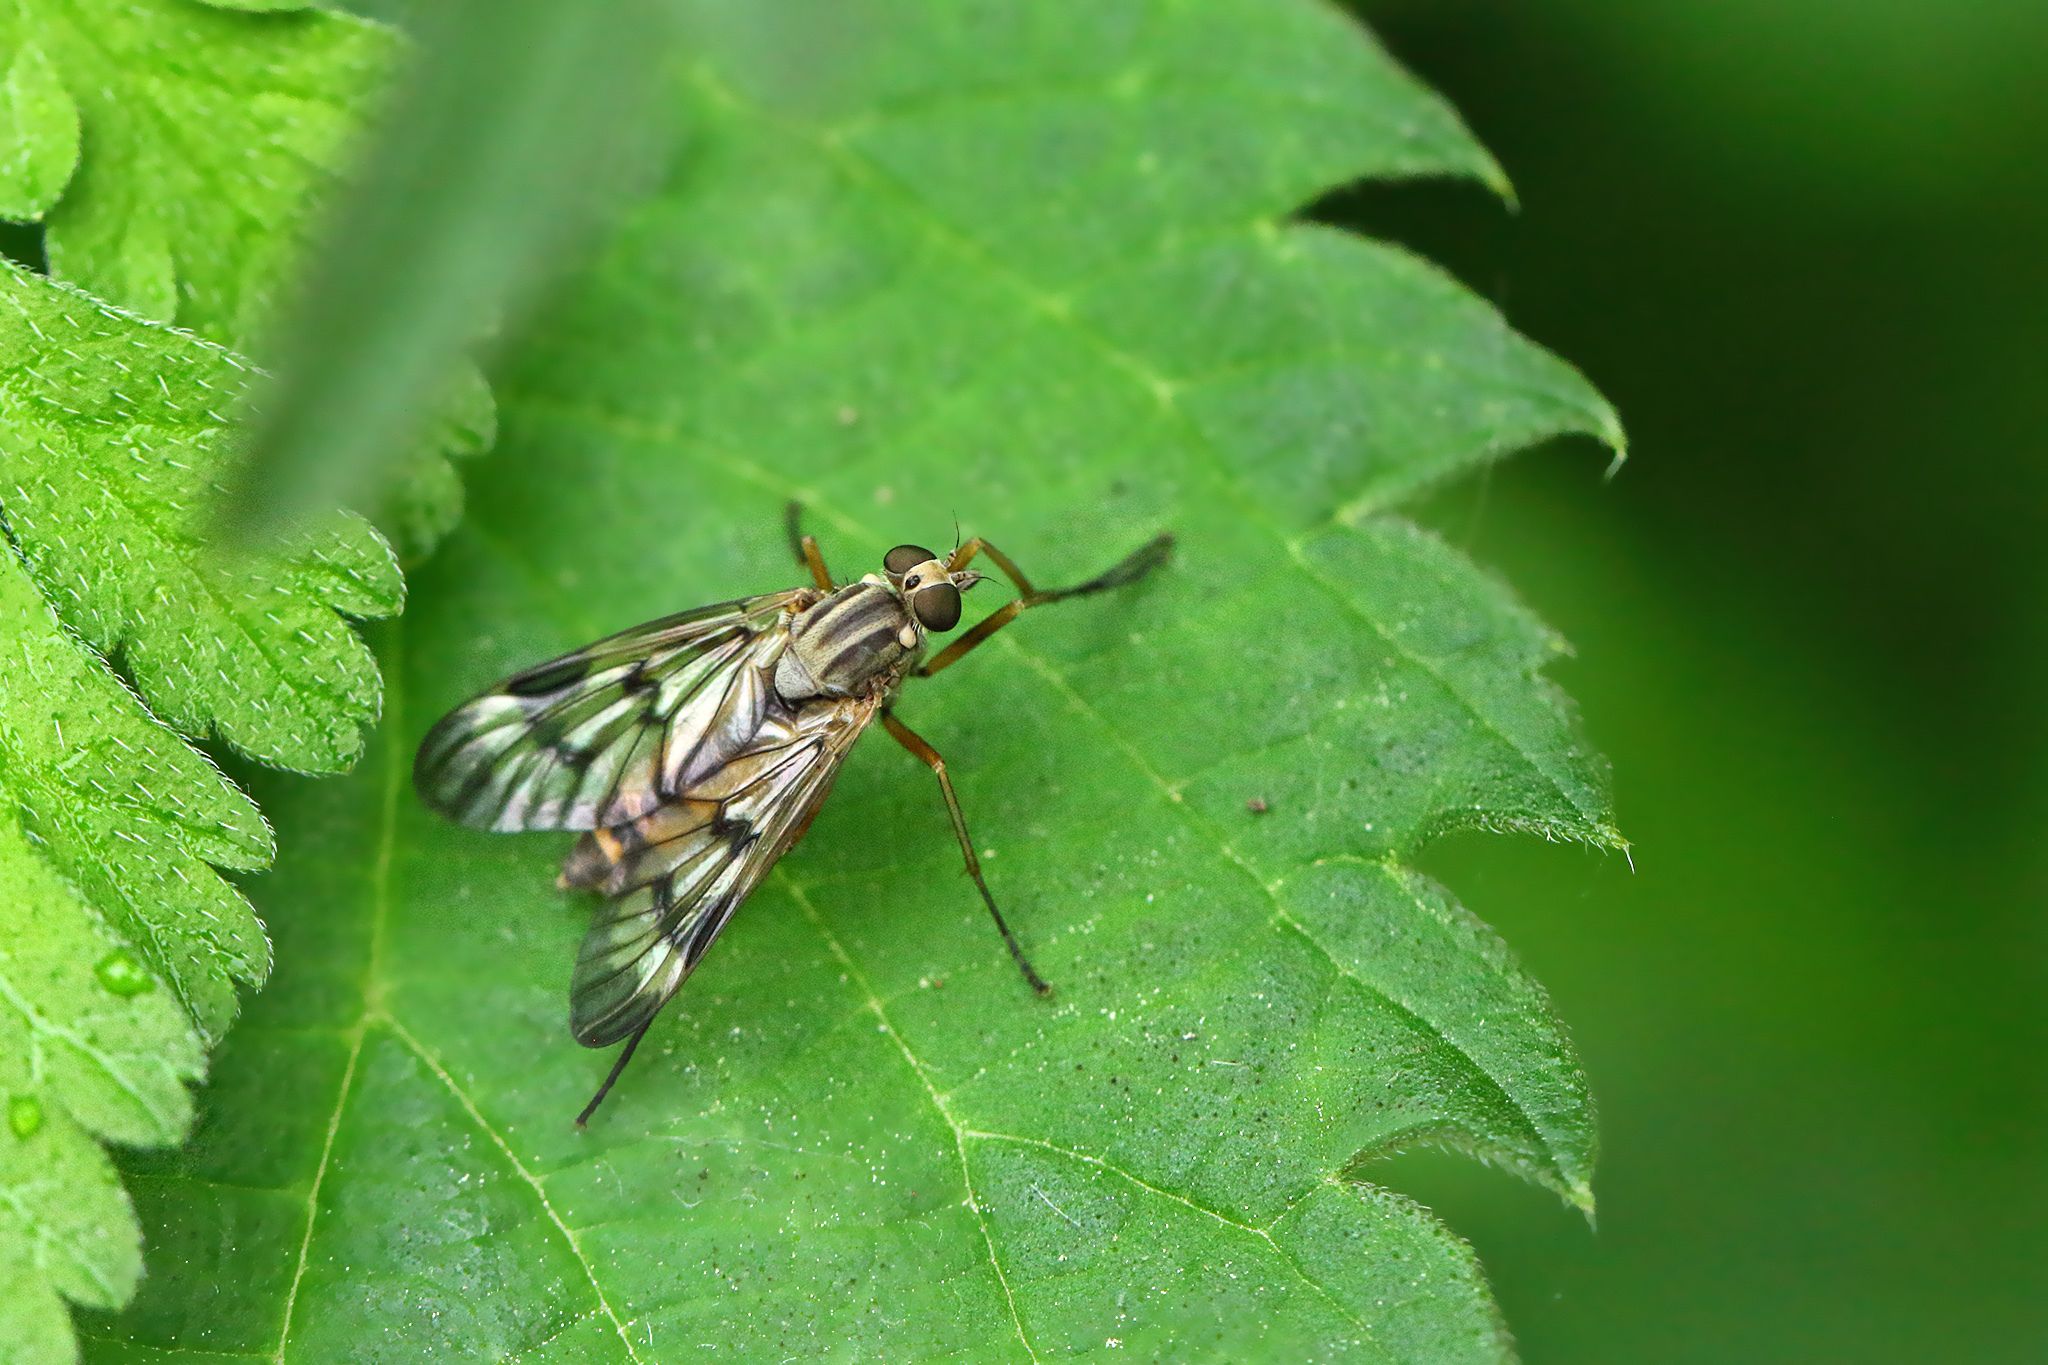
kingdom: Animalia
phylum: Arthropoda
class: Insecta
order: Diptera
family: Rhagionidae
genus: Rhagio
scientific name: Rhagio scolopacea
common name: Downlooker snipefly
